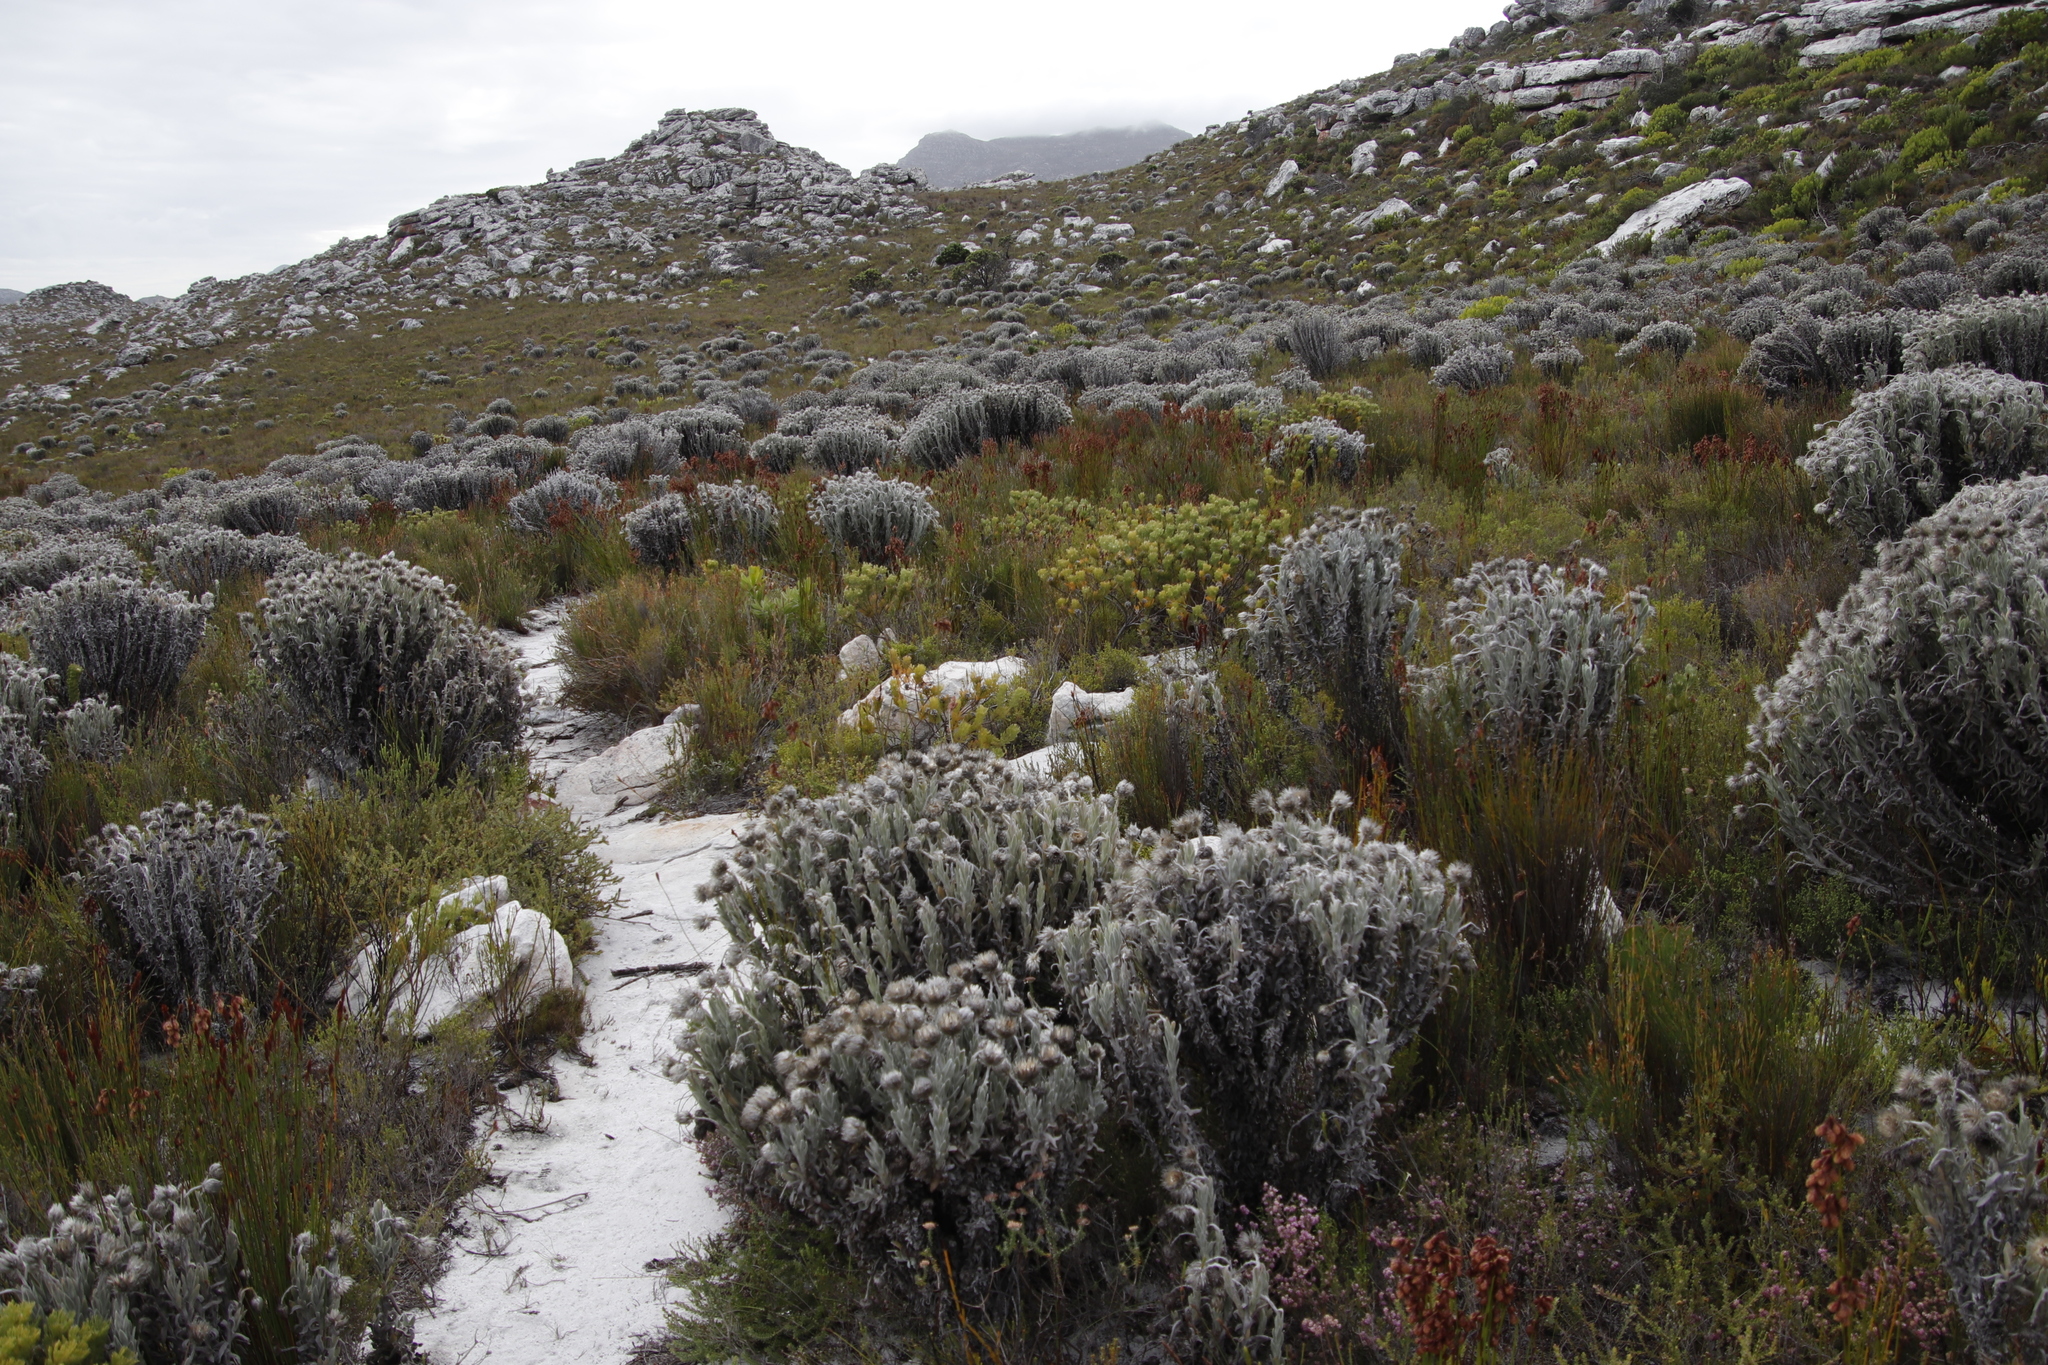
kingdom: Plantae
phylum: Tracheophyta
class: Magnoliopsida
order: Asterales
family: Asteraceae
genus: Syncarpha
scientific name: Syncarpha vestita
